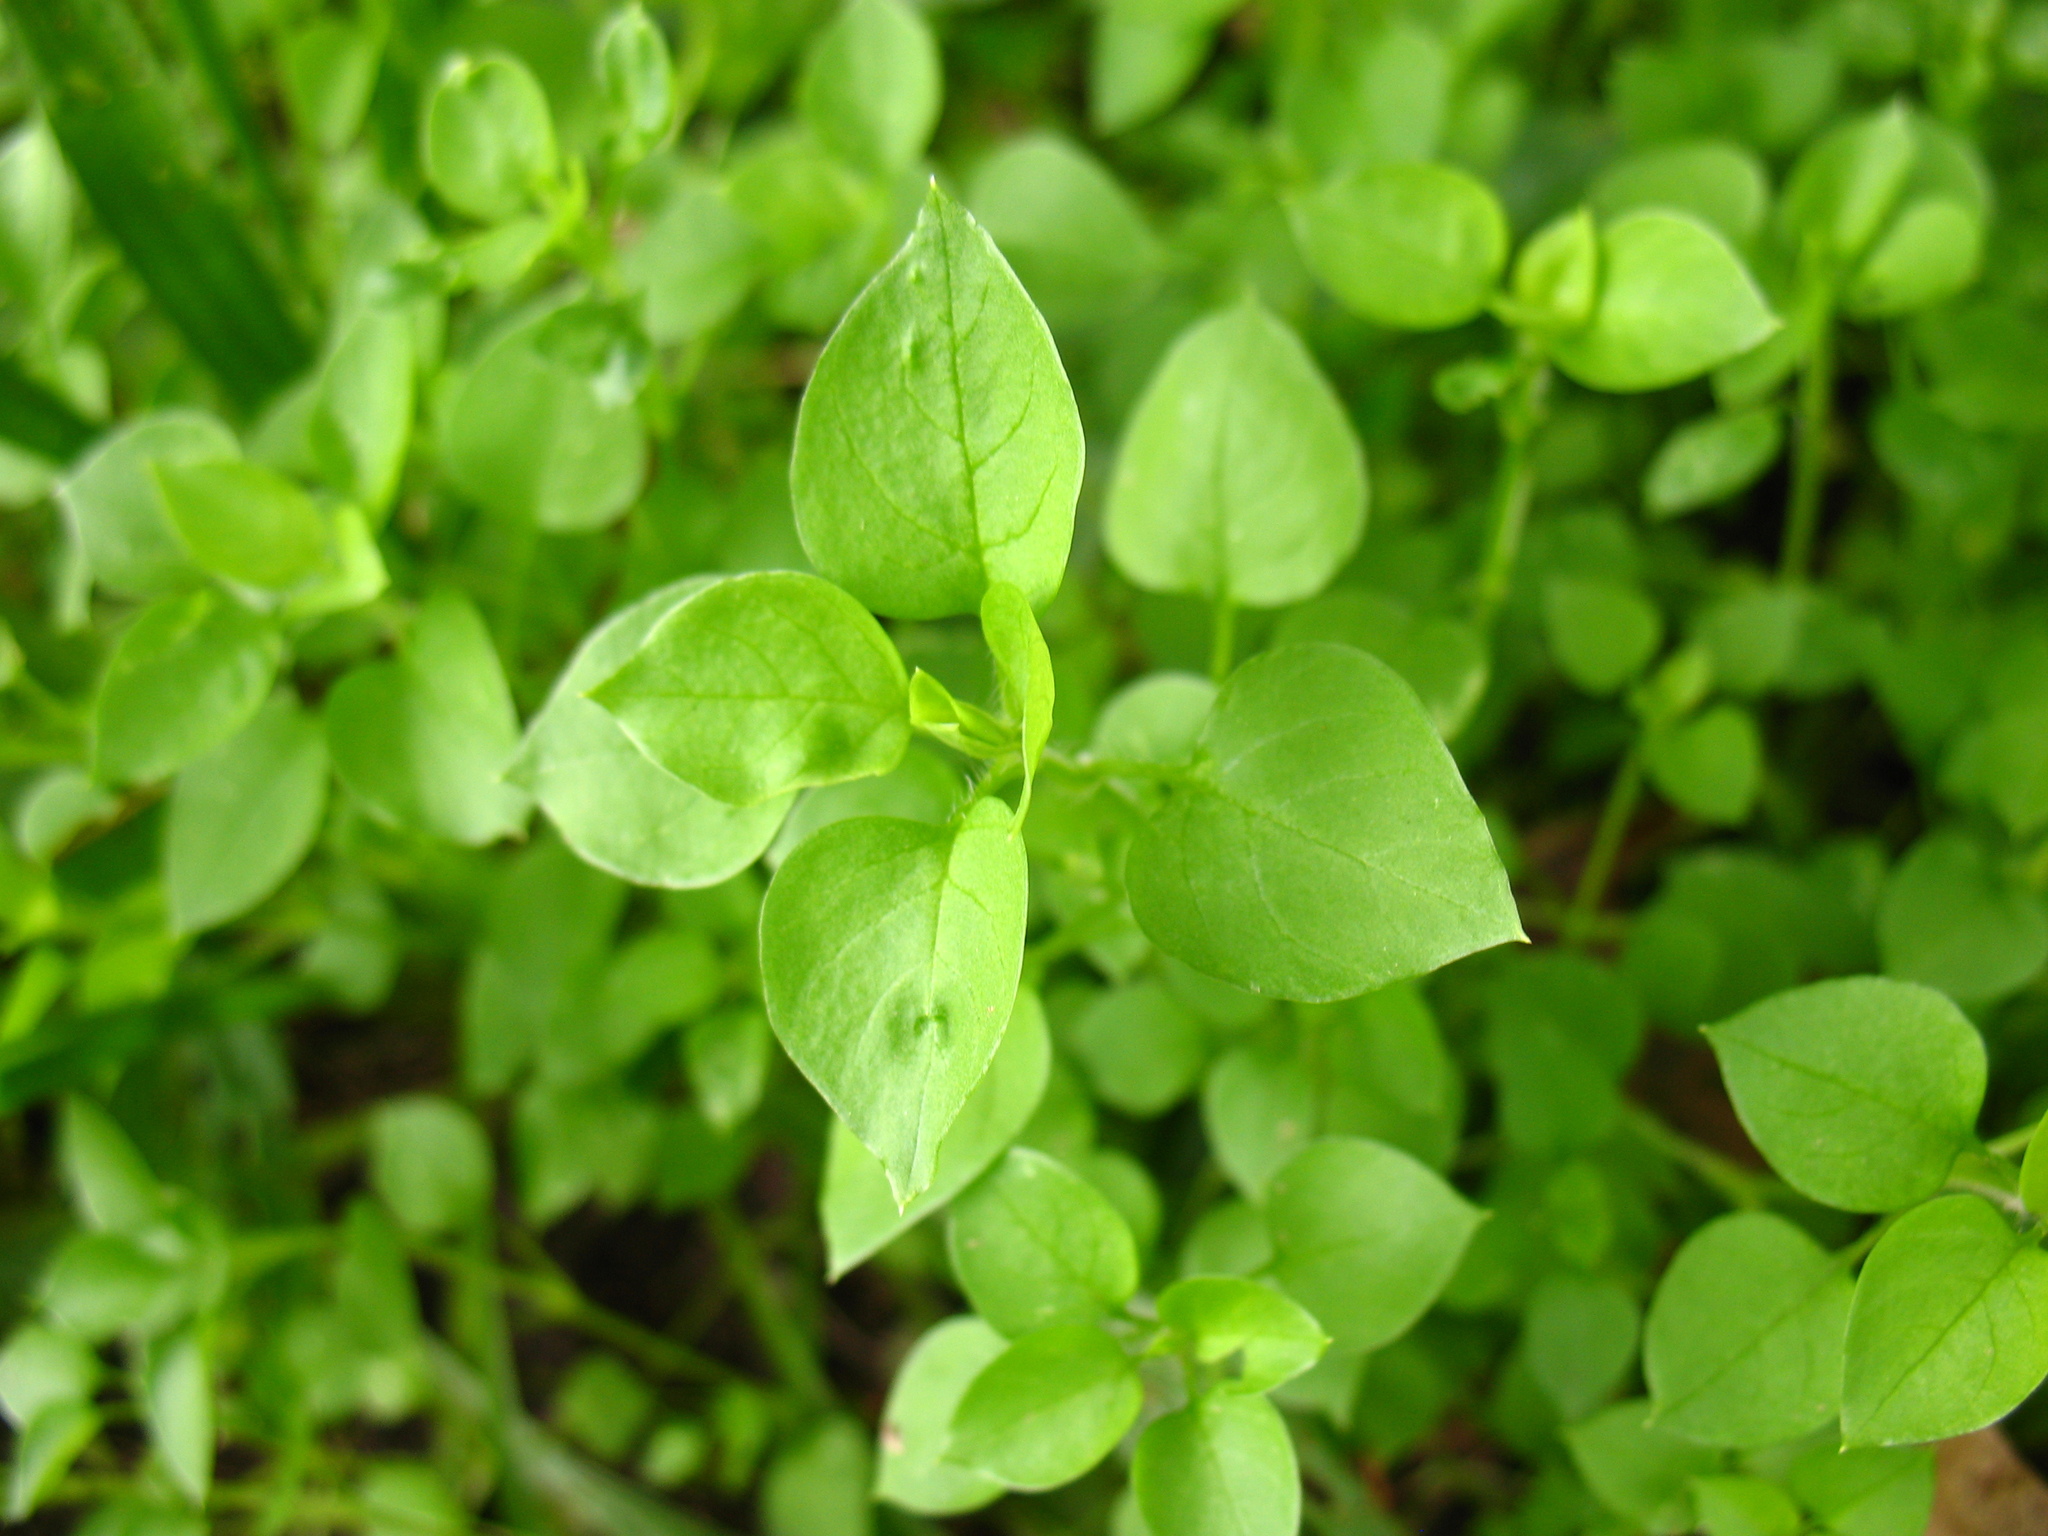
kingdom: Plantae
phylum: Tracheophyta
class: Magnoliopsida
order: Caryophyllales
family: Caryophyllaceae
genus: Stellaria
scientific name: Stellaria media
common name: Common chickweed
